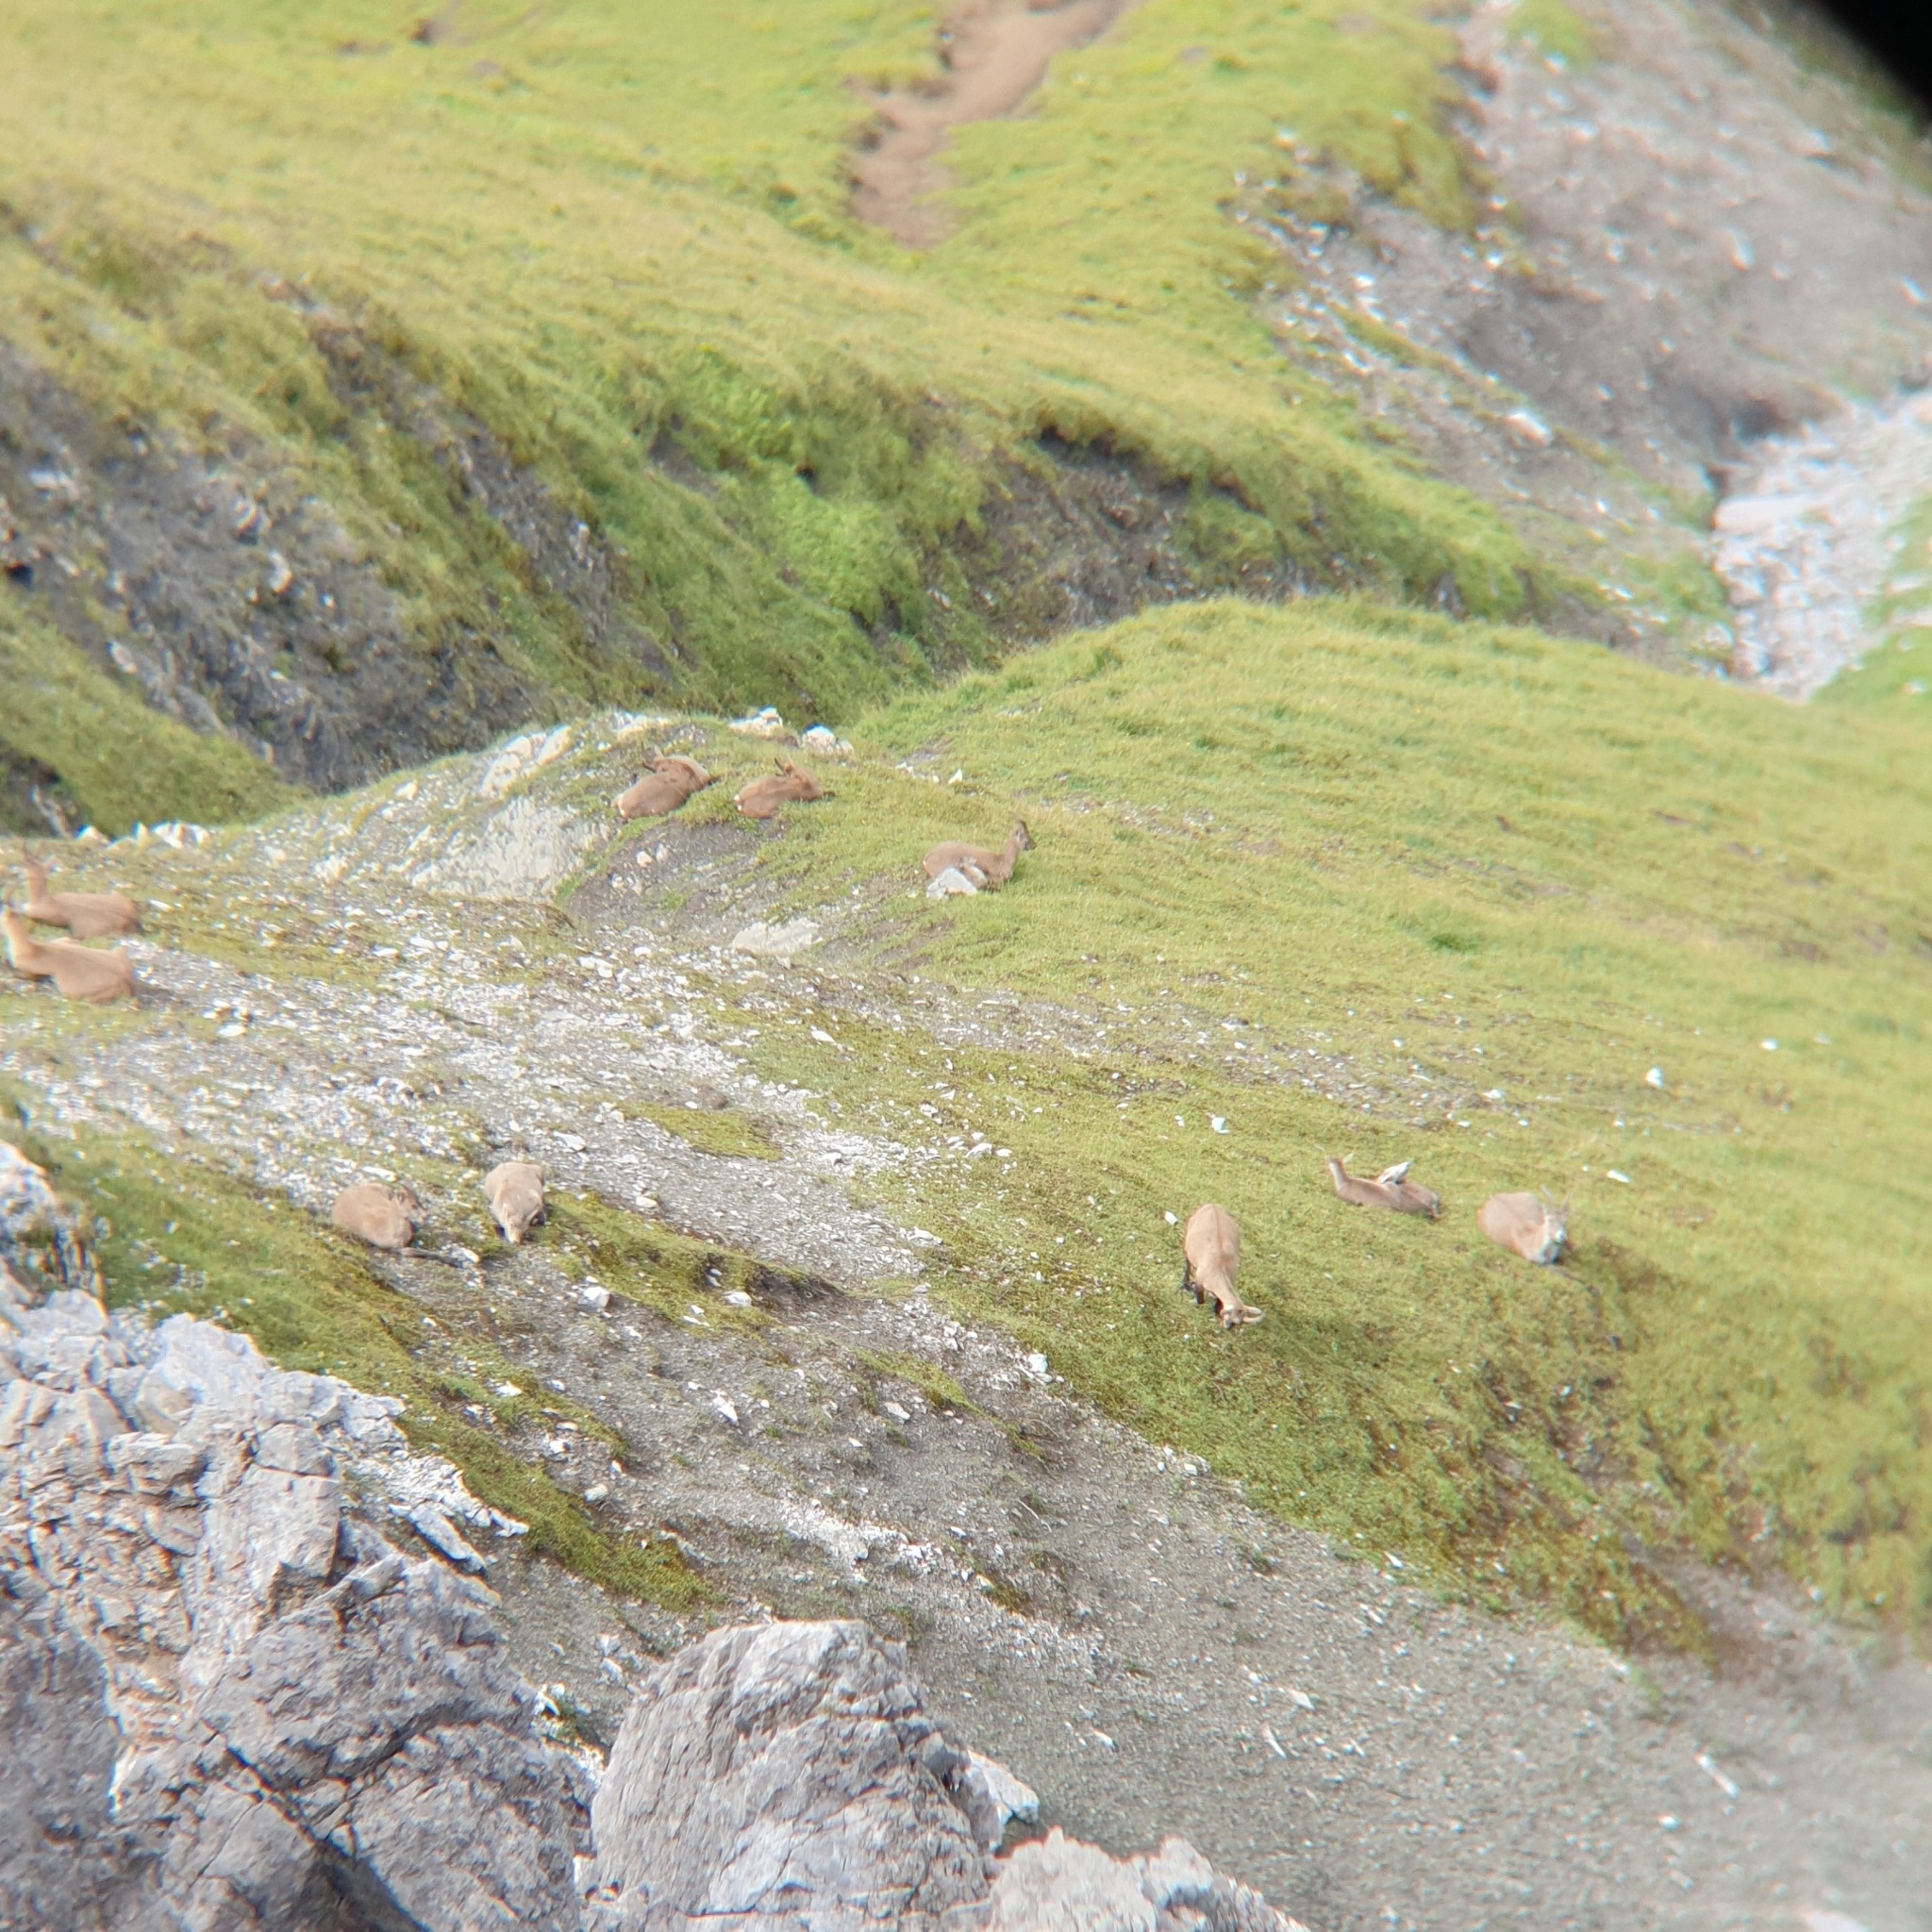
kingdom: Animalia
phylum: Chordata
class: Mammalia
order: Artiodactyla
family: Bovidae
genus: Capra
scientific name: Capra ibex
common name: Alpine ibex
